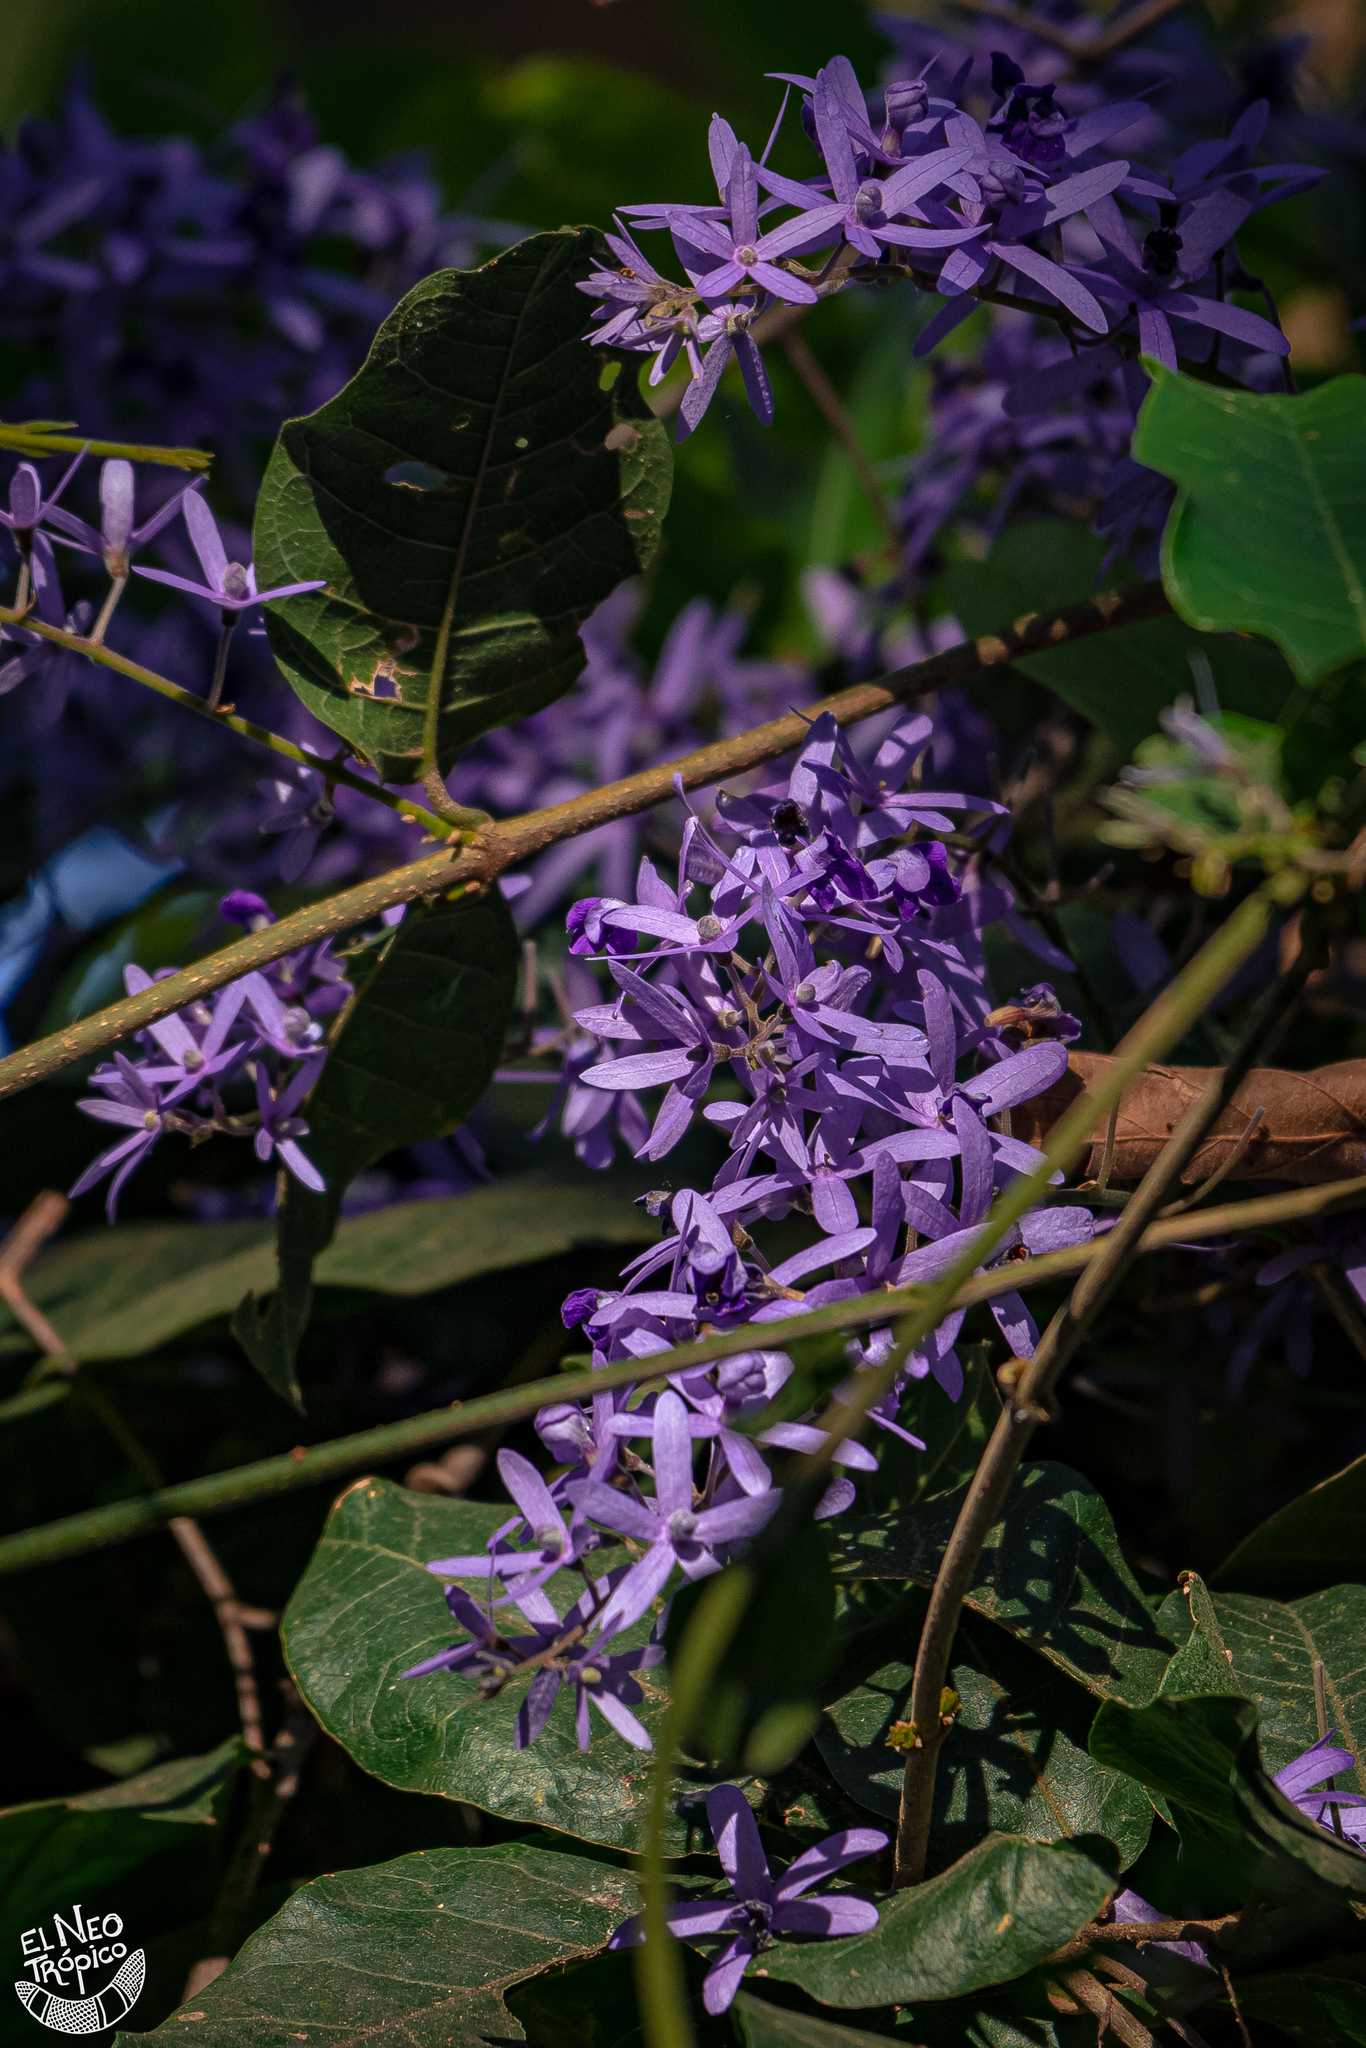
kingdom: Plantae
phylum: Tracheophyta
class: Magnoliopsida
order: Lamiales
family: Verbenaceae
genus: Petrea
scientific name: Petrea volubilis
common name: Queen's-wreath
